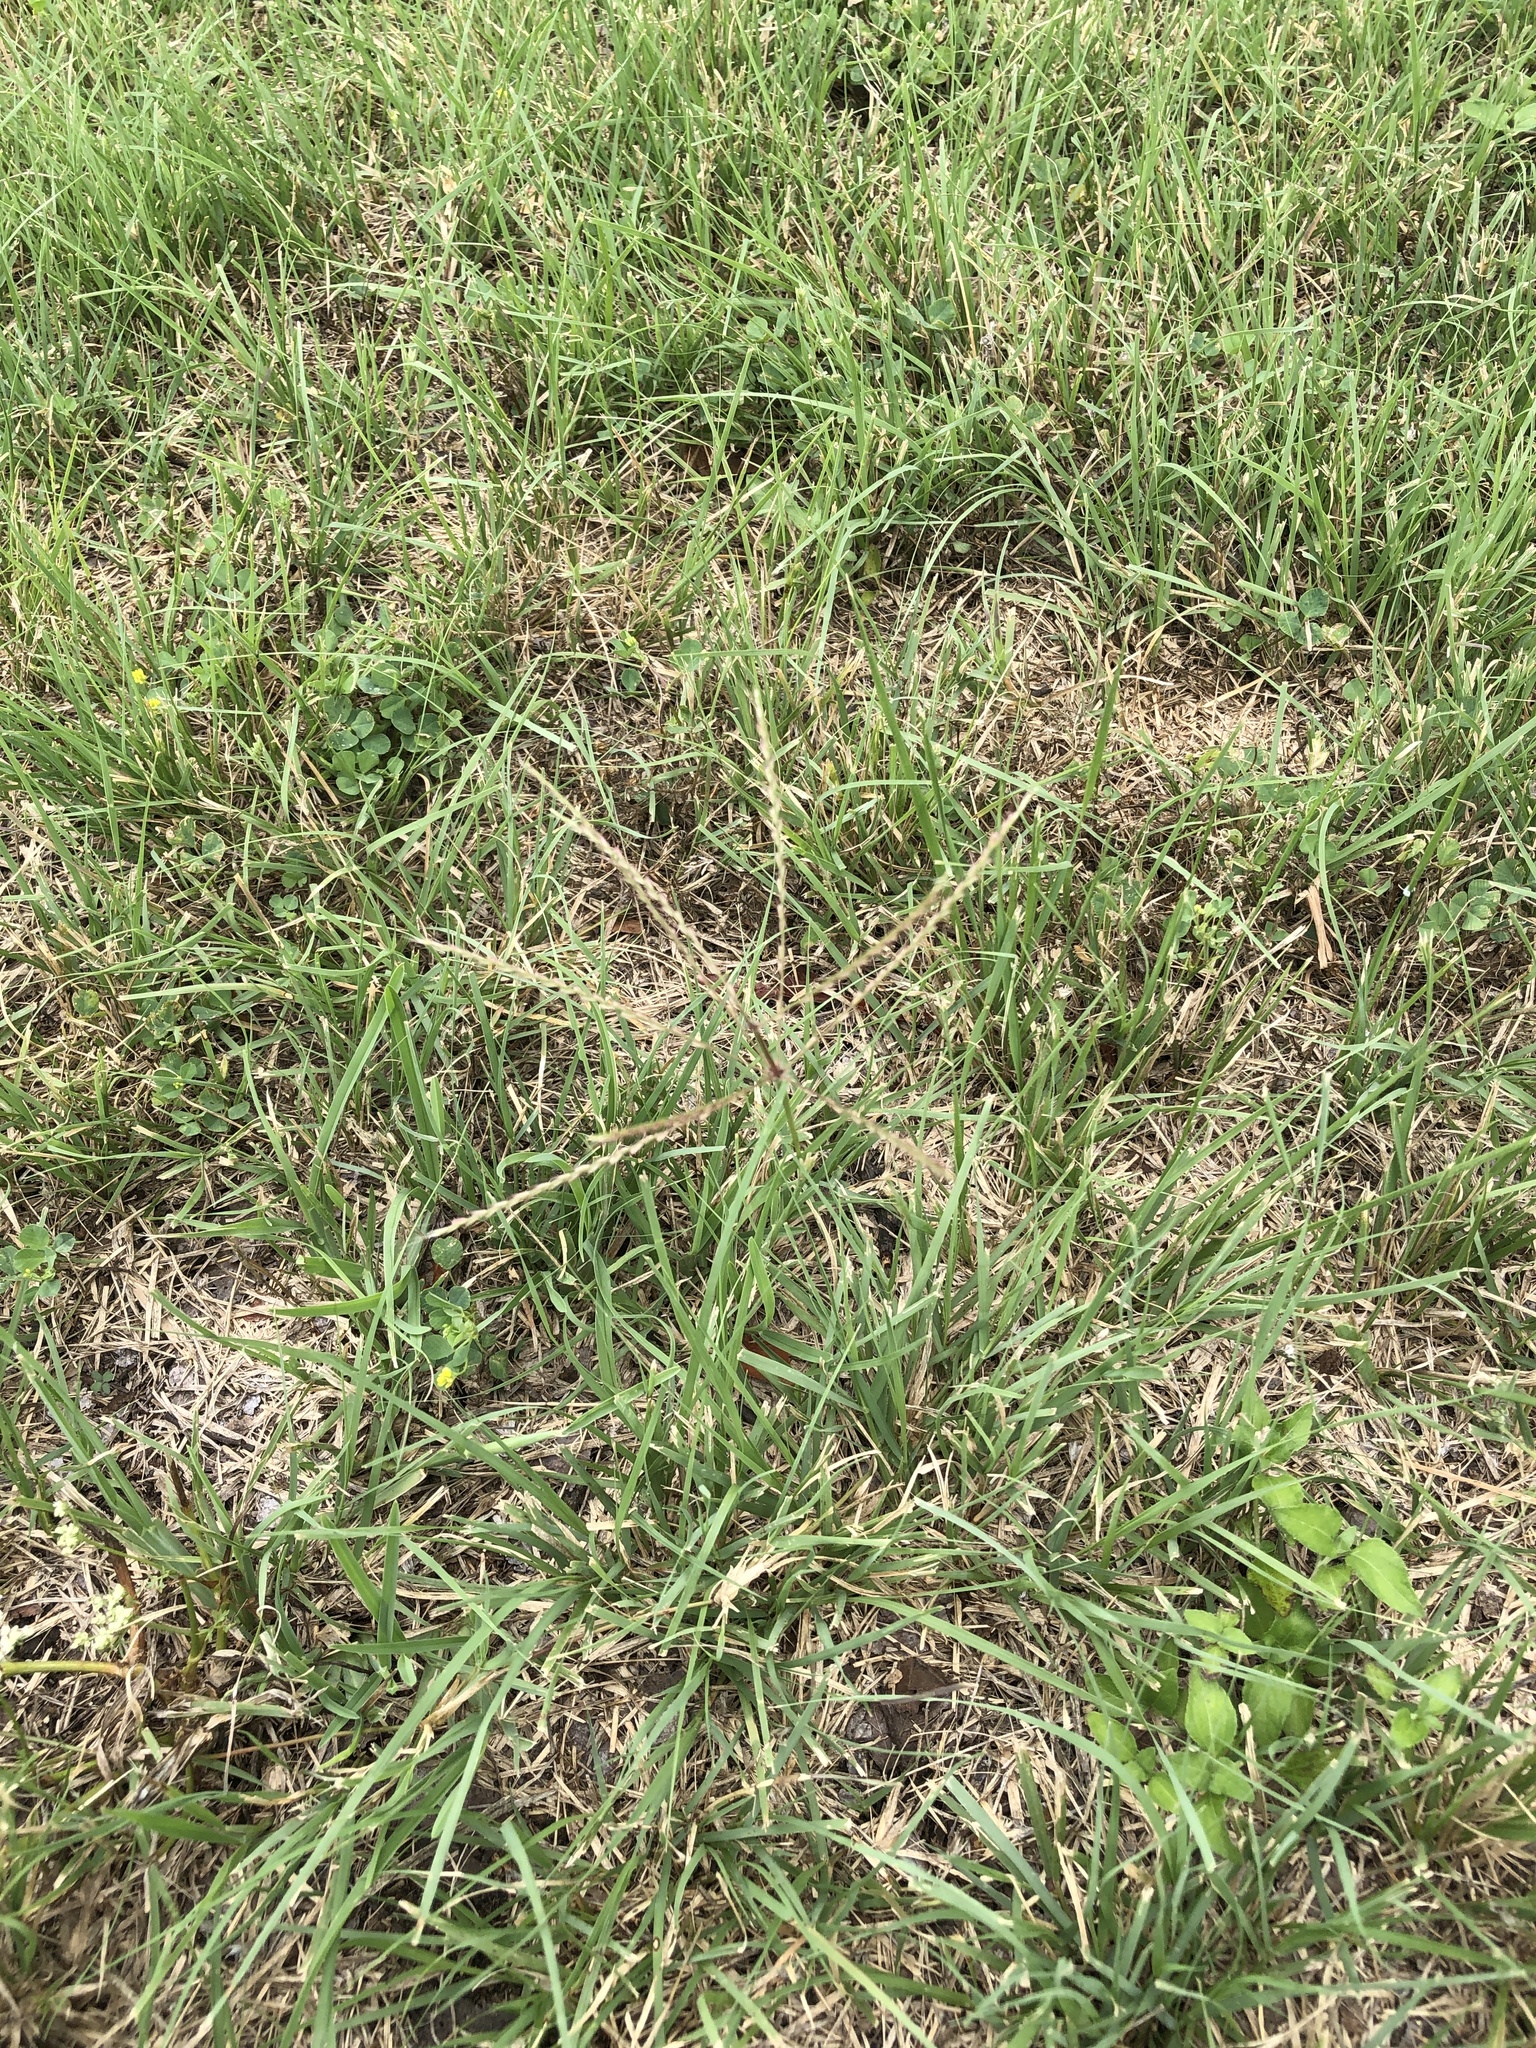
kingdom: Plantae
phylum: Tracheophyta
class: Liliopsida
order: Poales
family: Poaceae
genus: Chloris
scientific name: Chloris verticillata
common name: Tumble windmill grass
